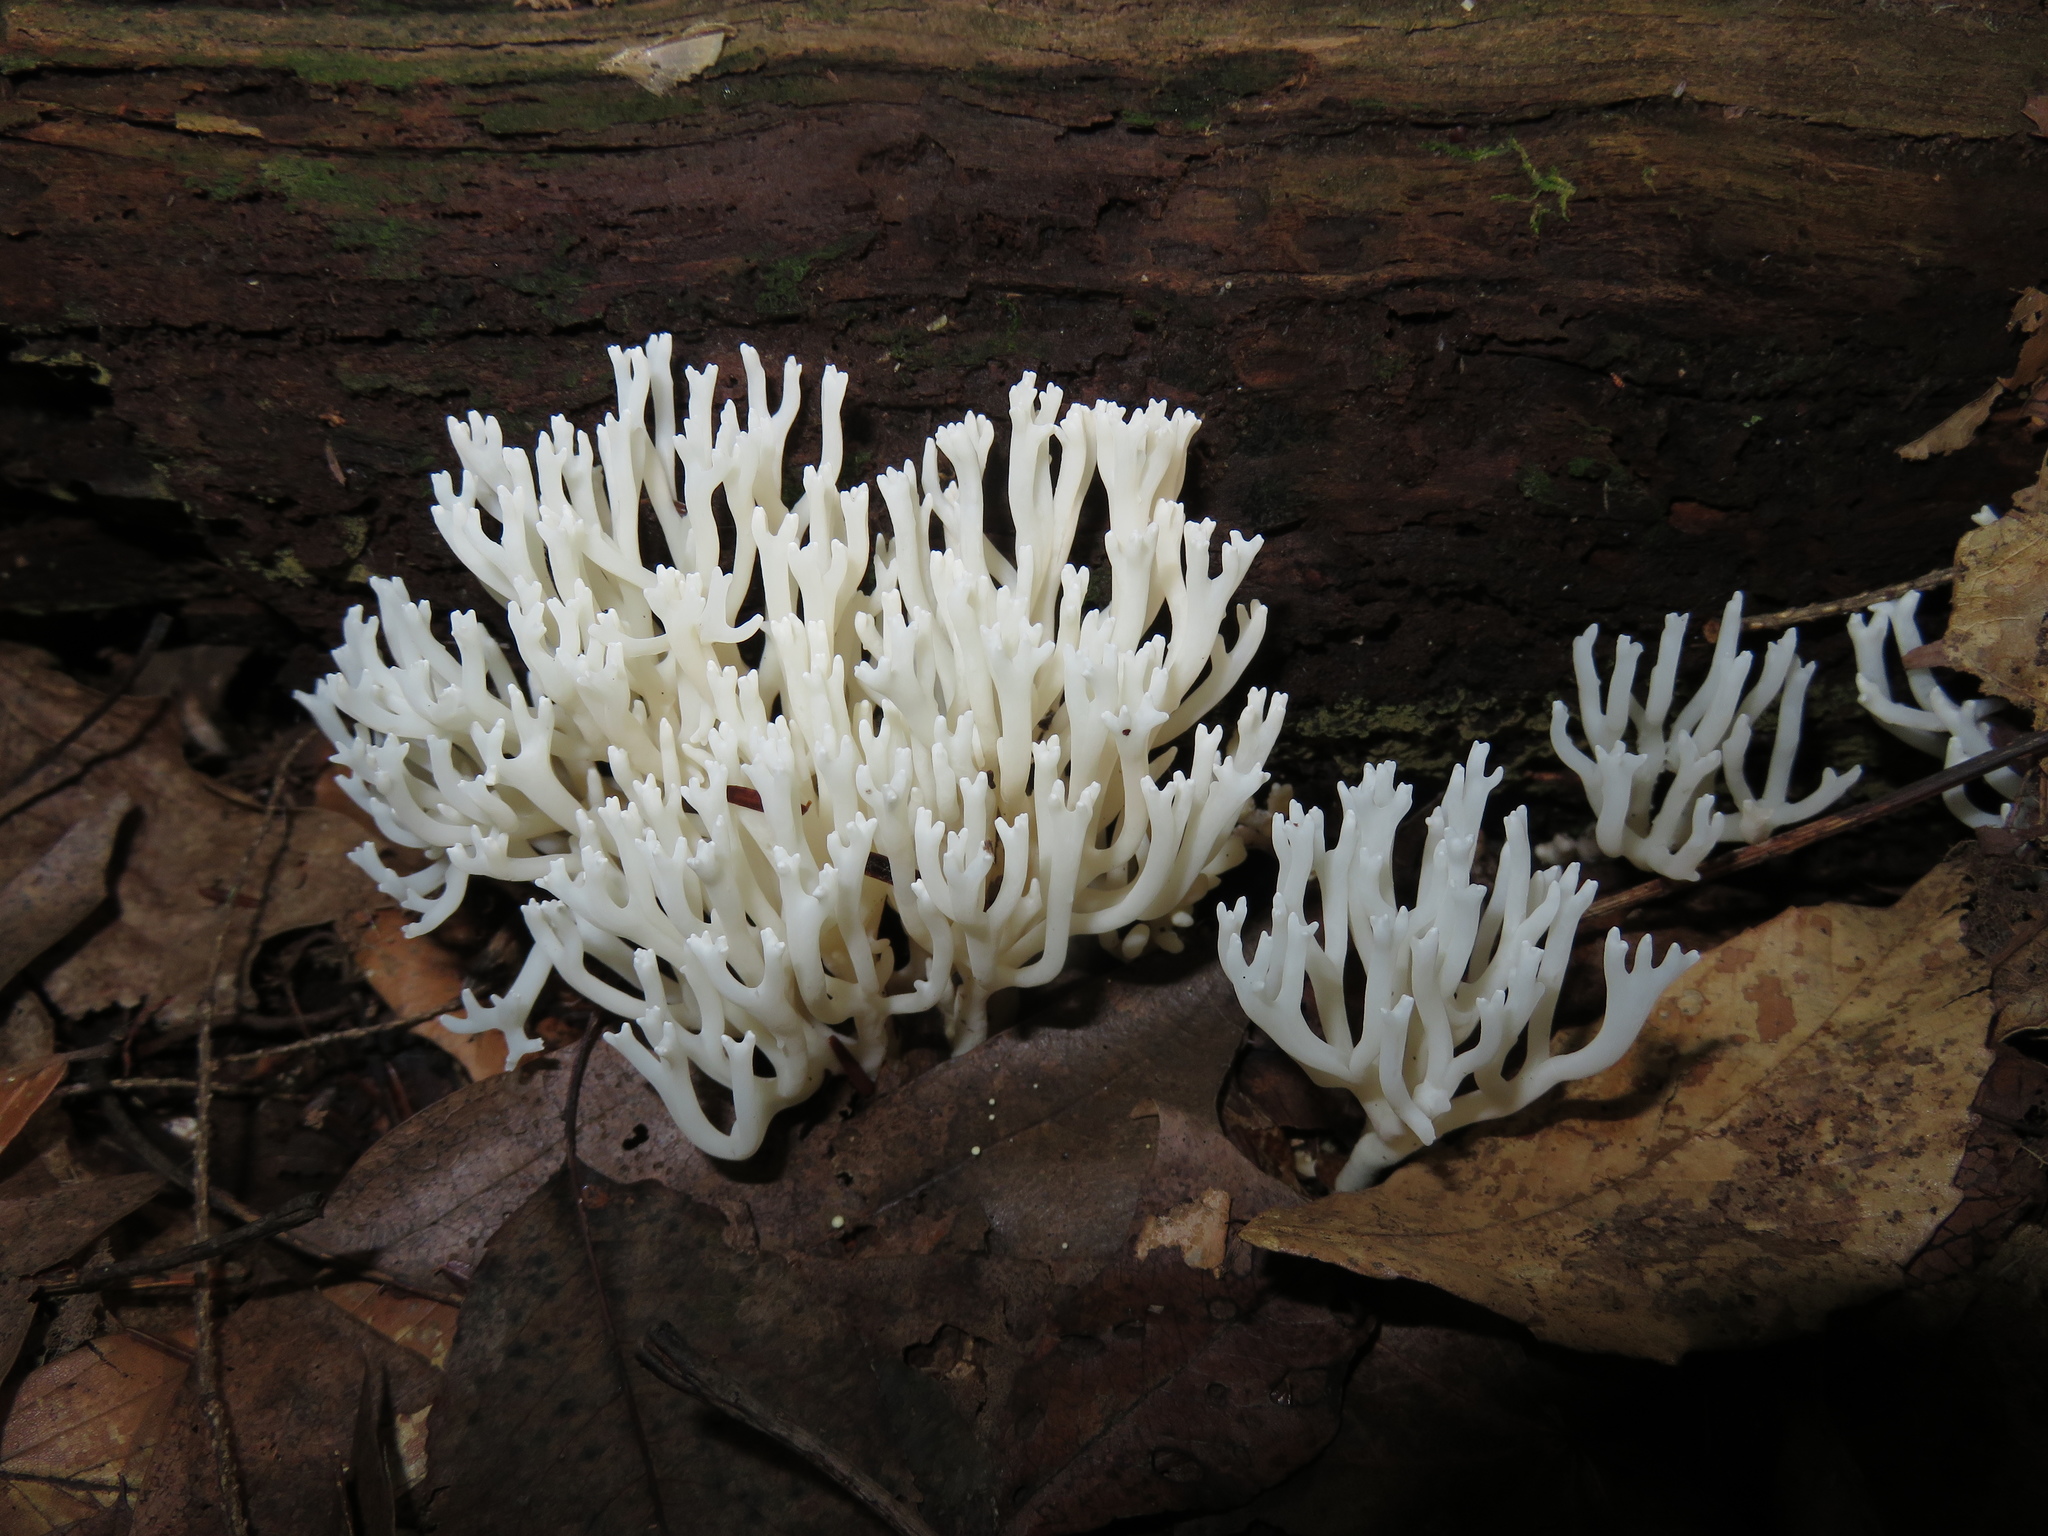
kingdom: Fungi
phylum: Basidiomycota
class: Agaricomycetes
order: Agaricales
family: Clavariaceae
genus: Ramariopsis
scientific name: Ramariopsis kunzei
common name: Ivory coral
